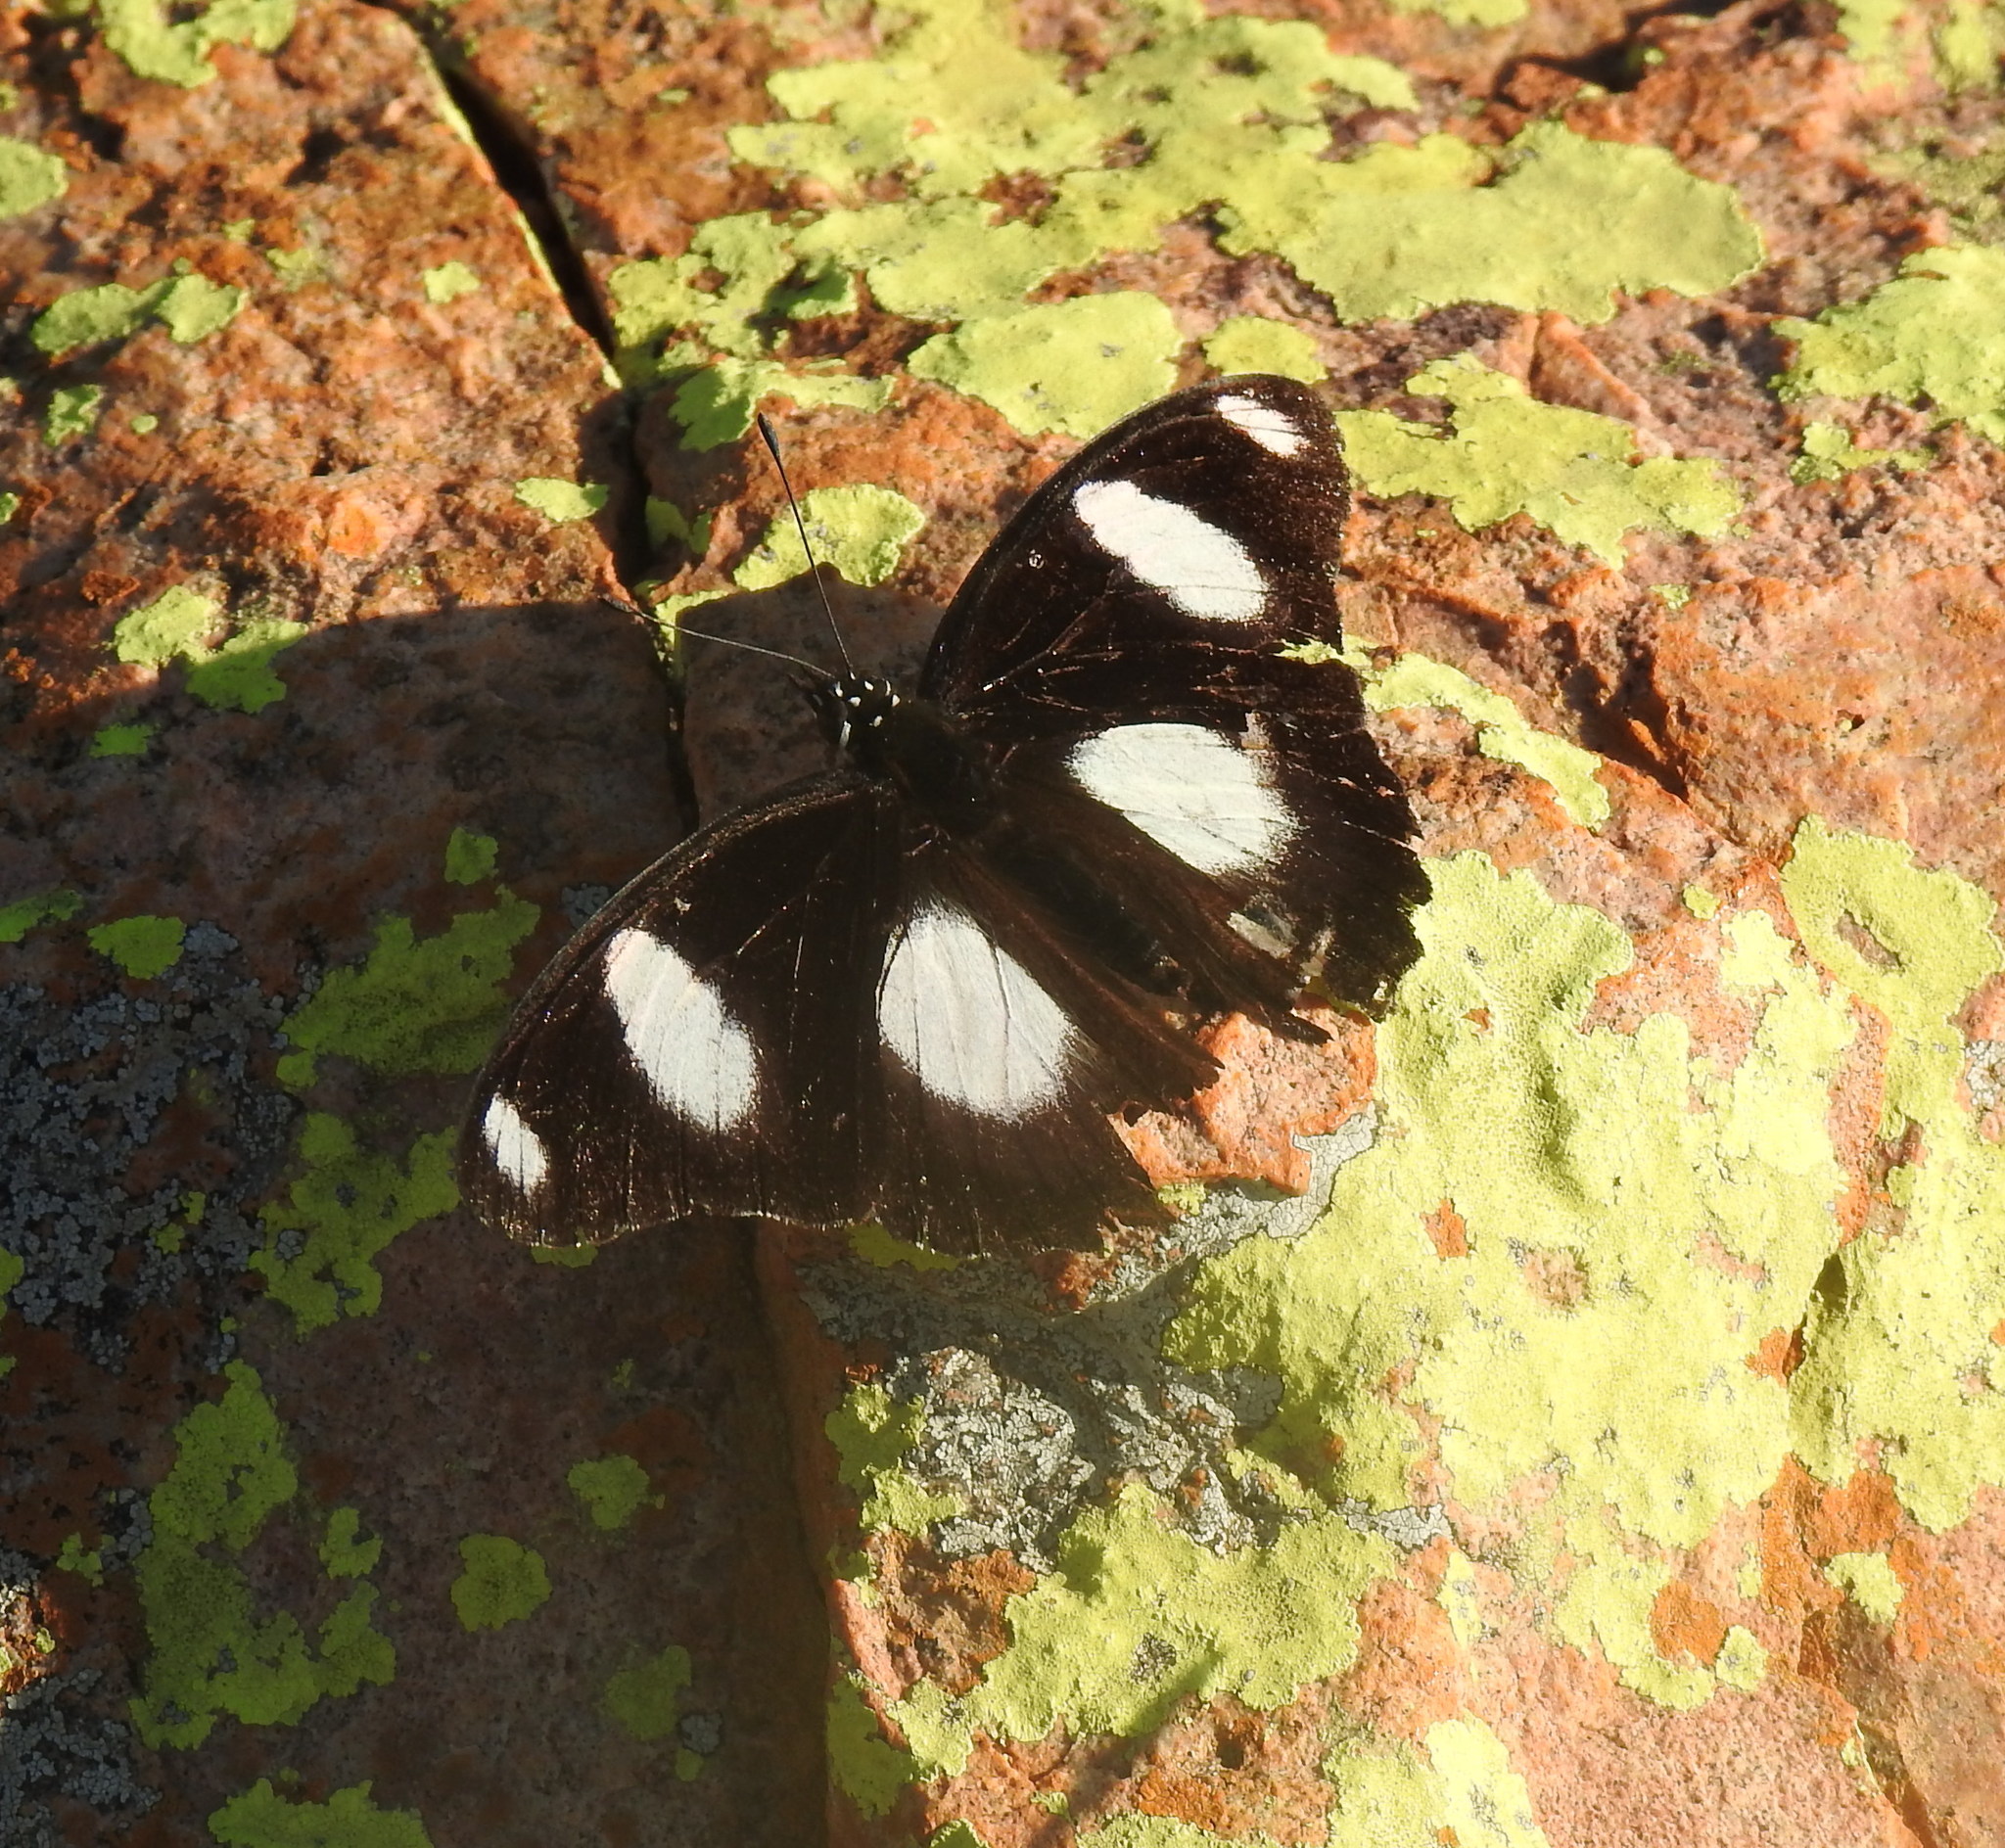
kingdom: Animalia
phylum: Arthropoda
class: Insecta
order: Lepidoptera
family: Nymphalidae
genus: Hypolimnas
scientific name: Hypolimnas misippus
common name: False plain tiger
